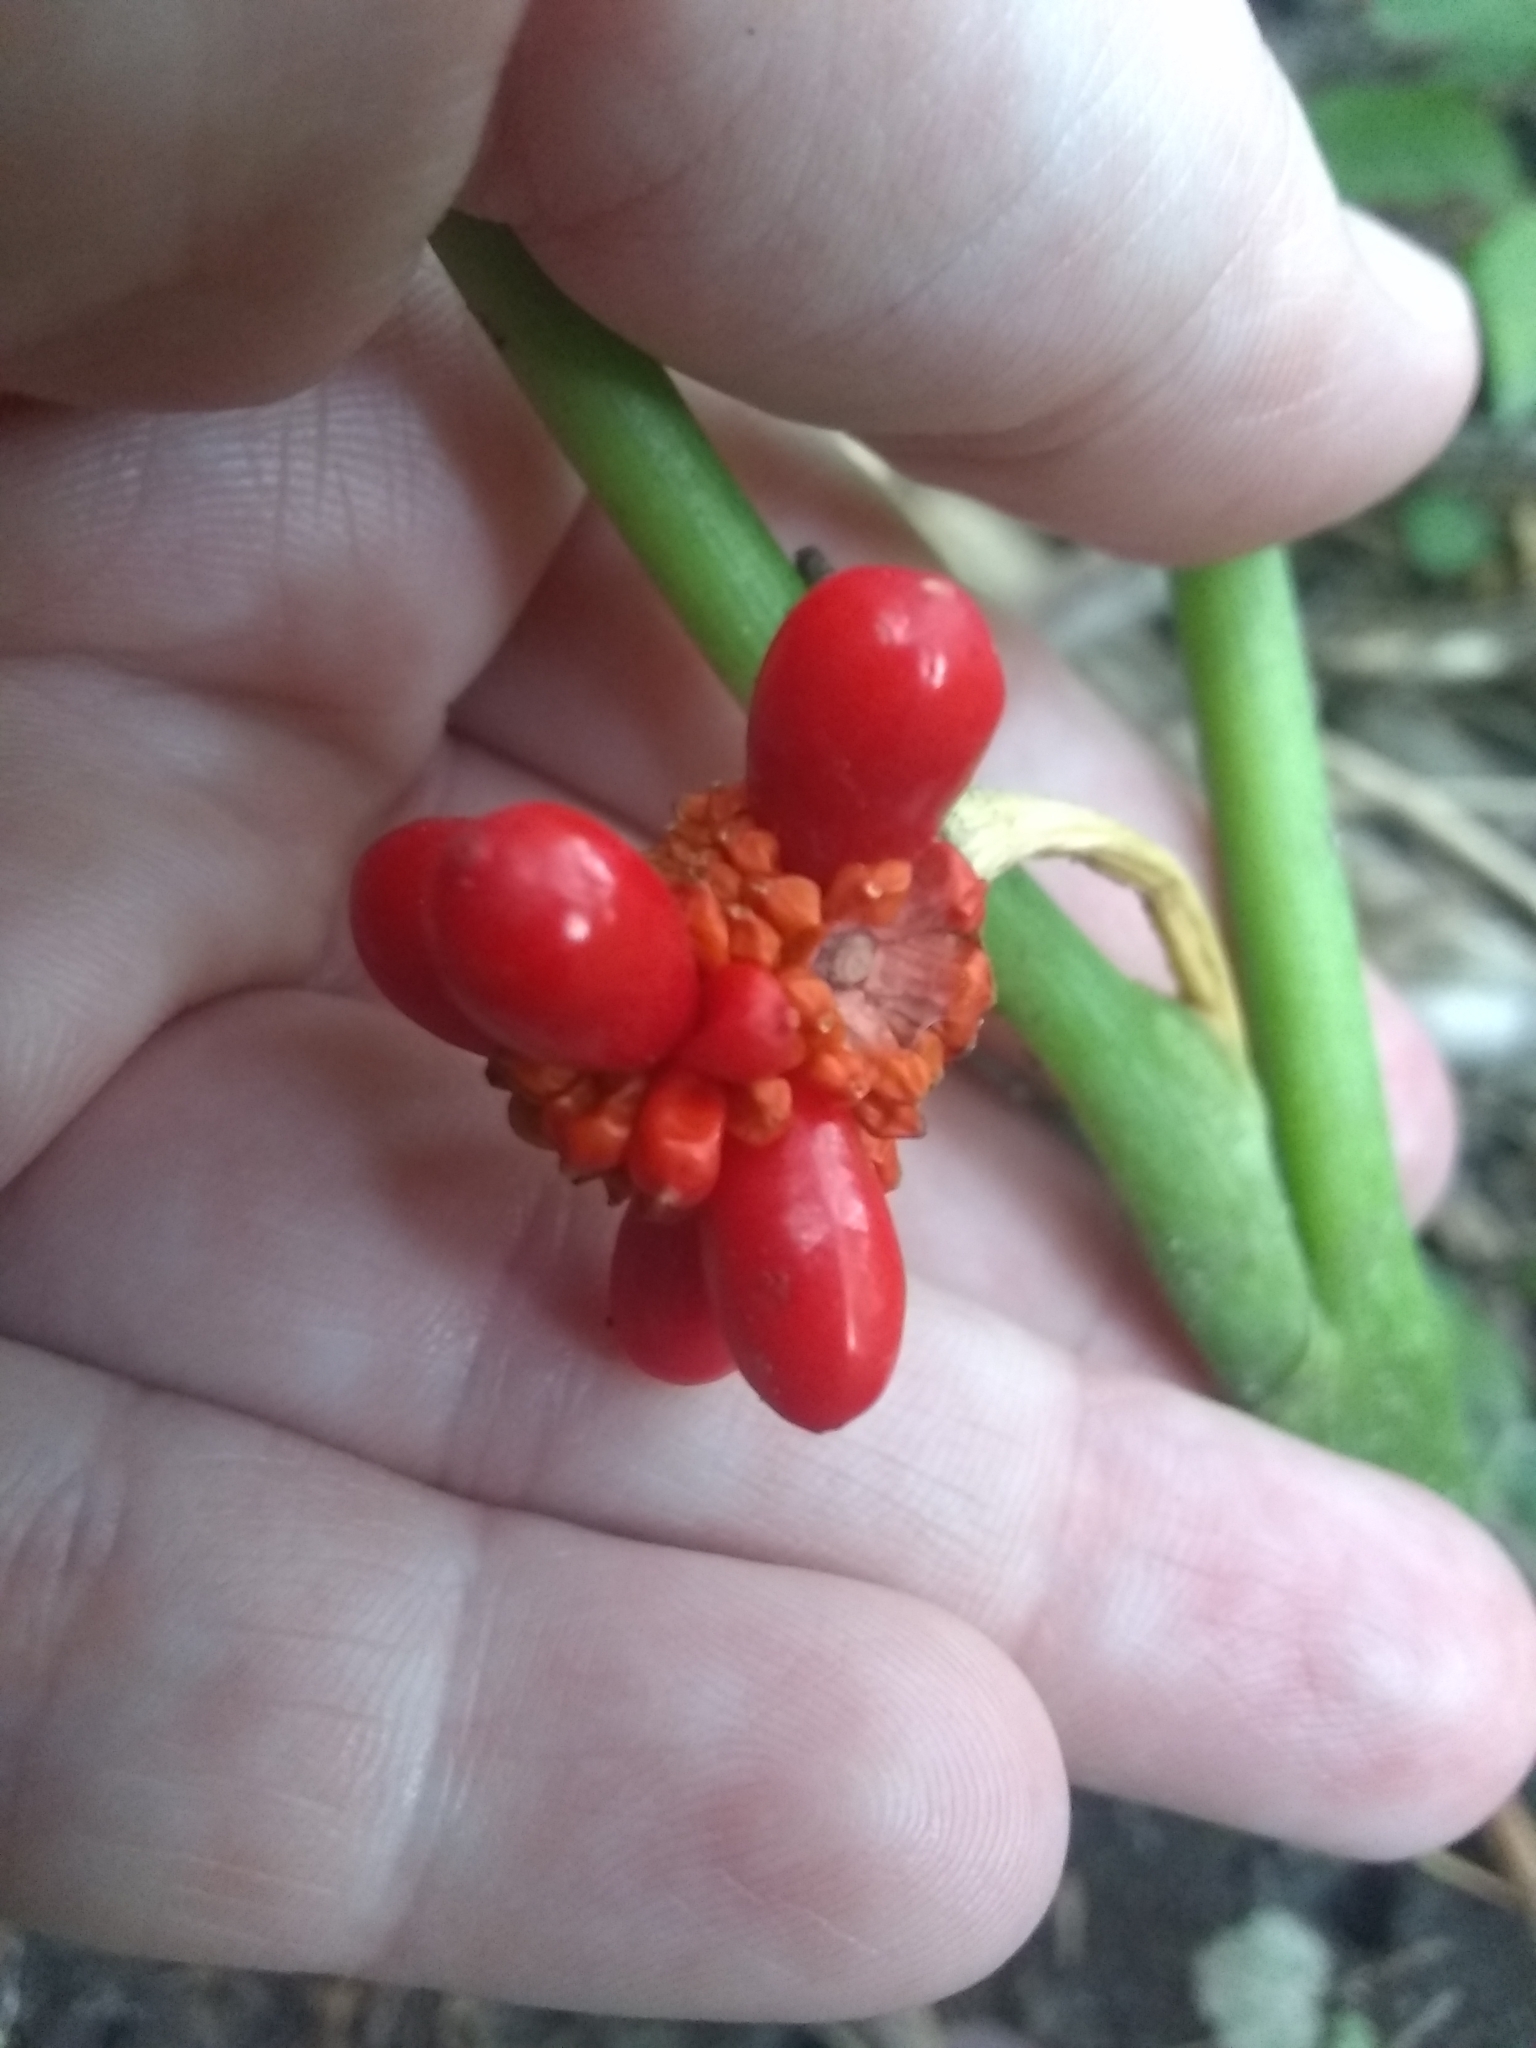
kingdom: Plantae
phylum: Tracheophyta
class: Liliopsida
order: Alismatales
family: Araceae
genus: Arisaema
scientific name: Arisaema triphyllum
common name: Jack-in-the-pulpit
